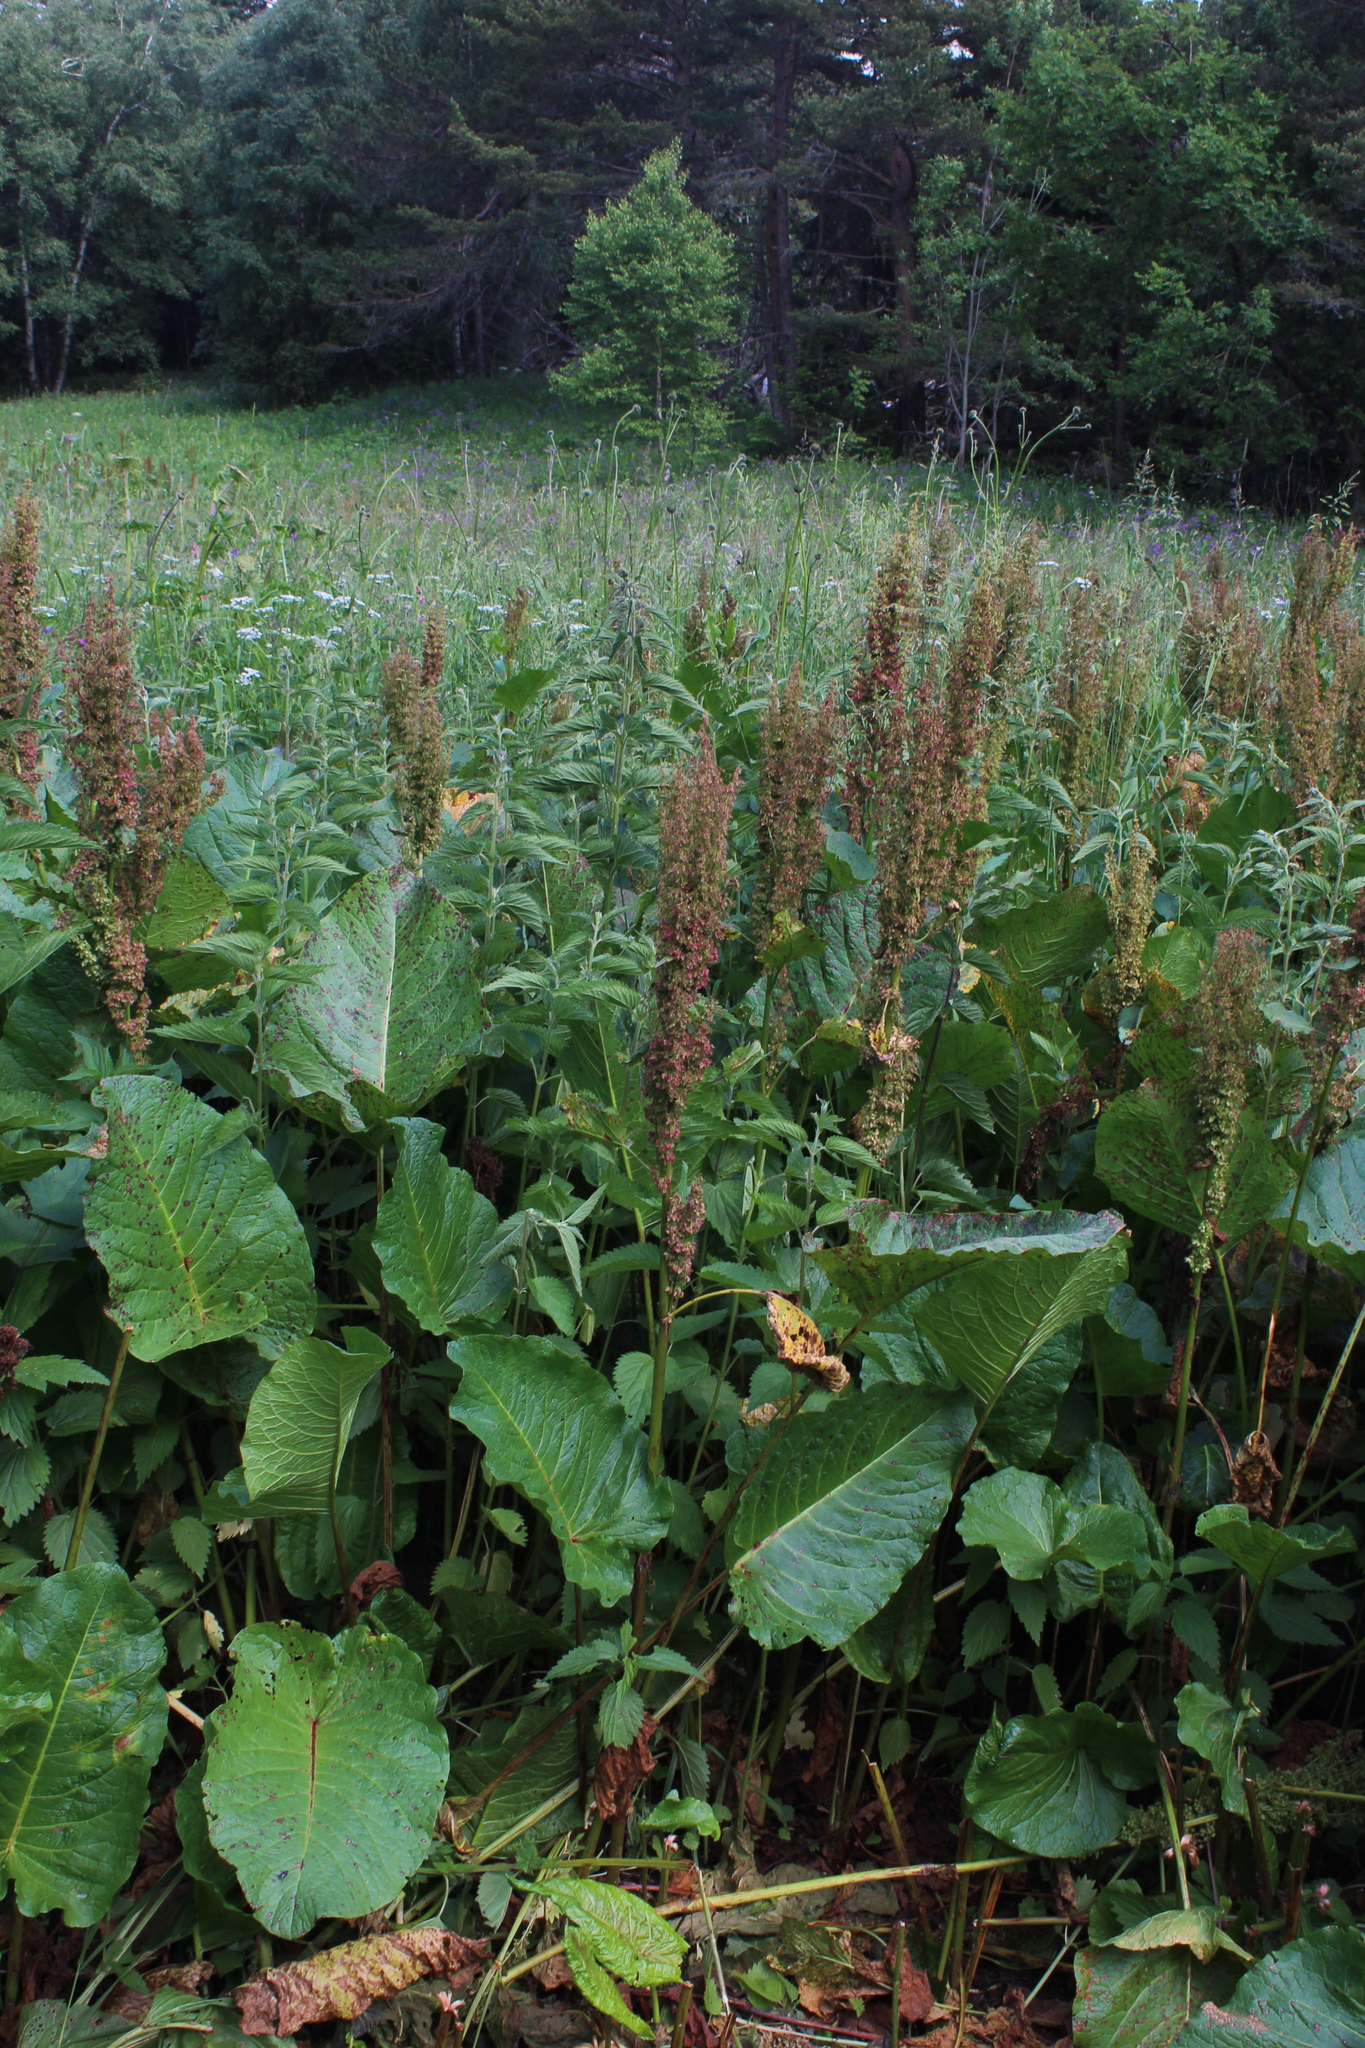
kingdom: Plantae
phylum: Tracheophyta
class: Magnoliopsida
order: Caryophyllales
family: Polygonaceae
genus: Rumex
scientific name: Rumex alpinus
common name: Alpine dock
